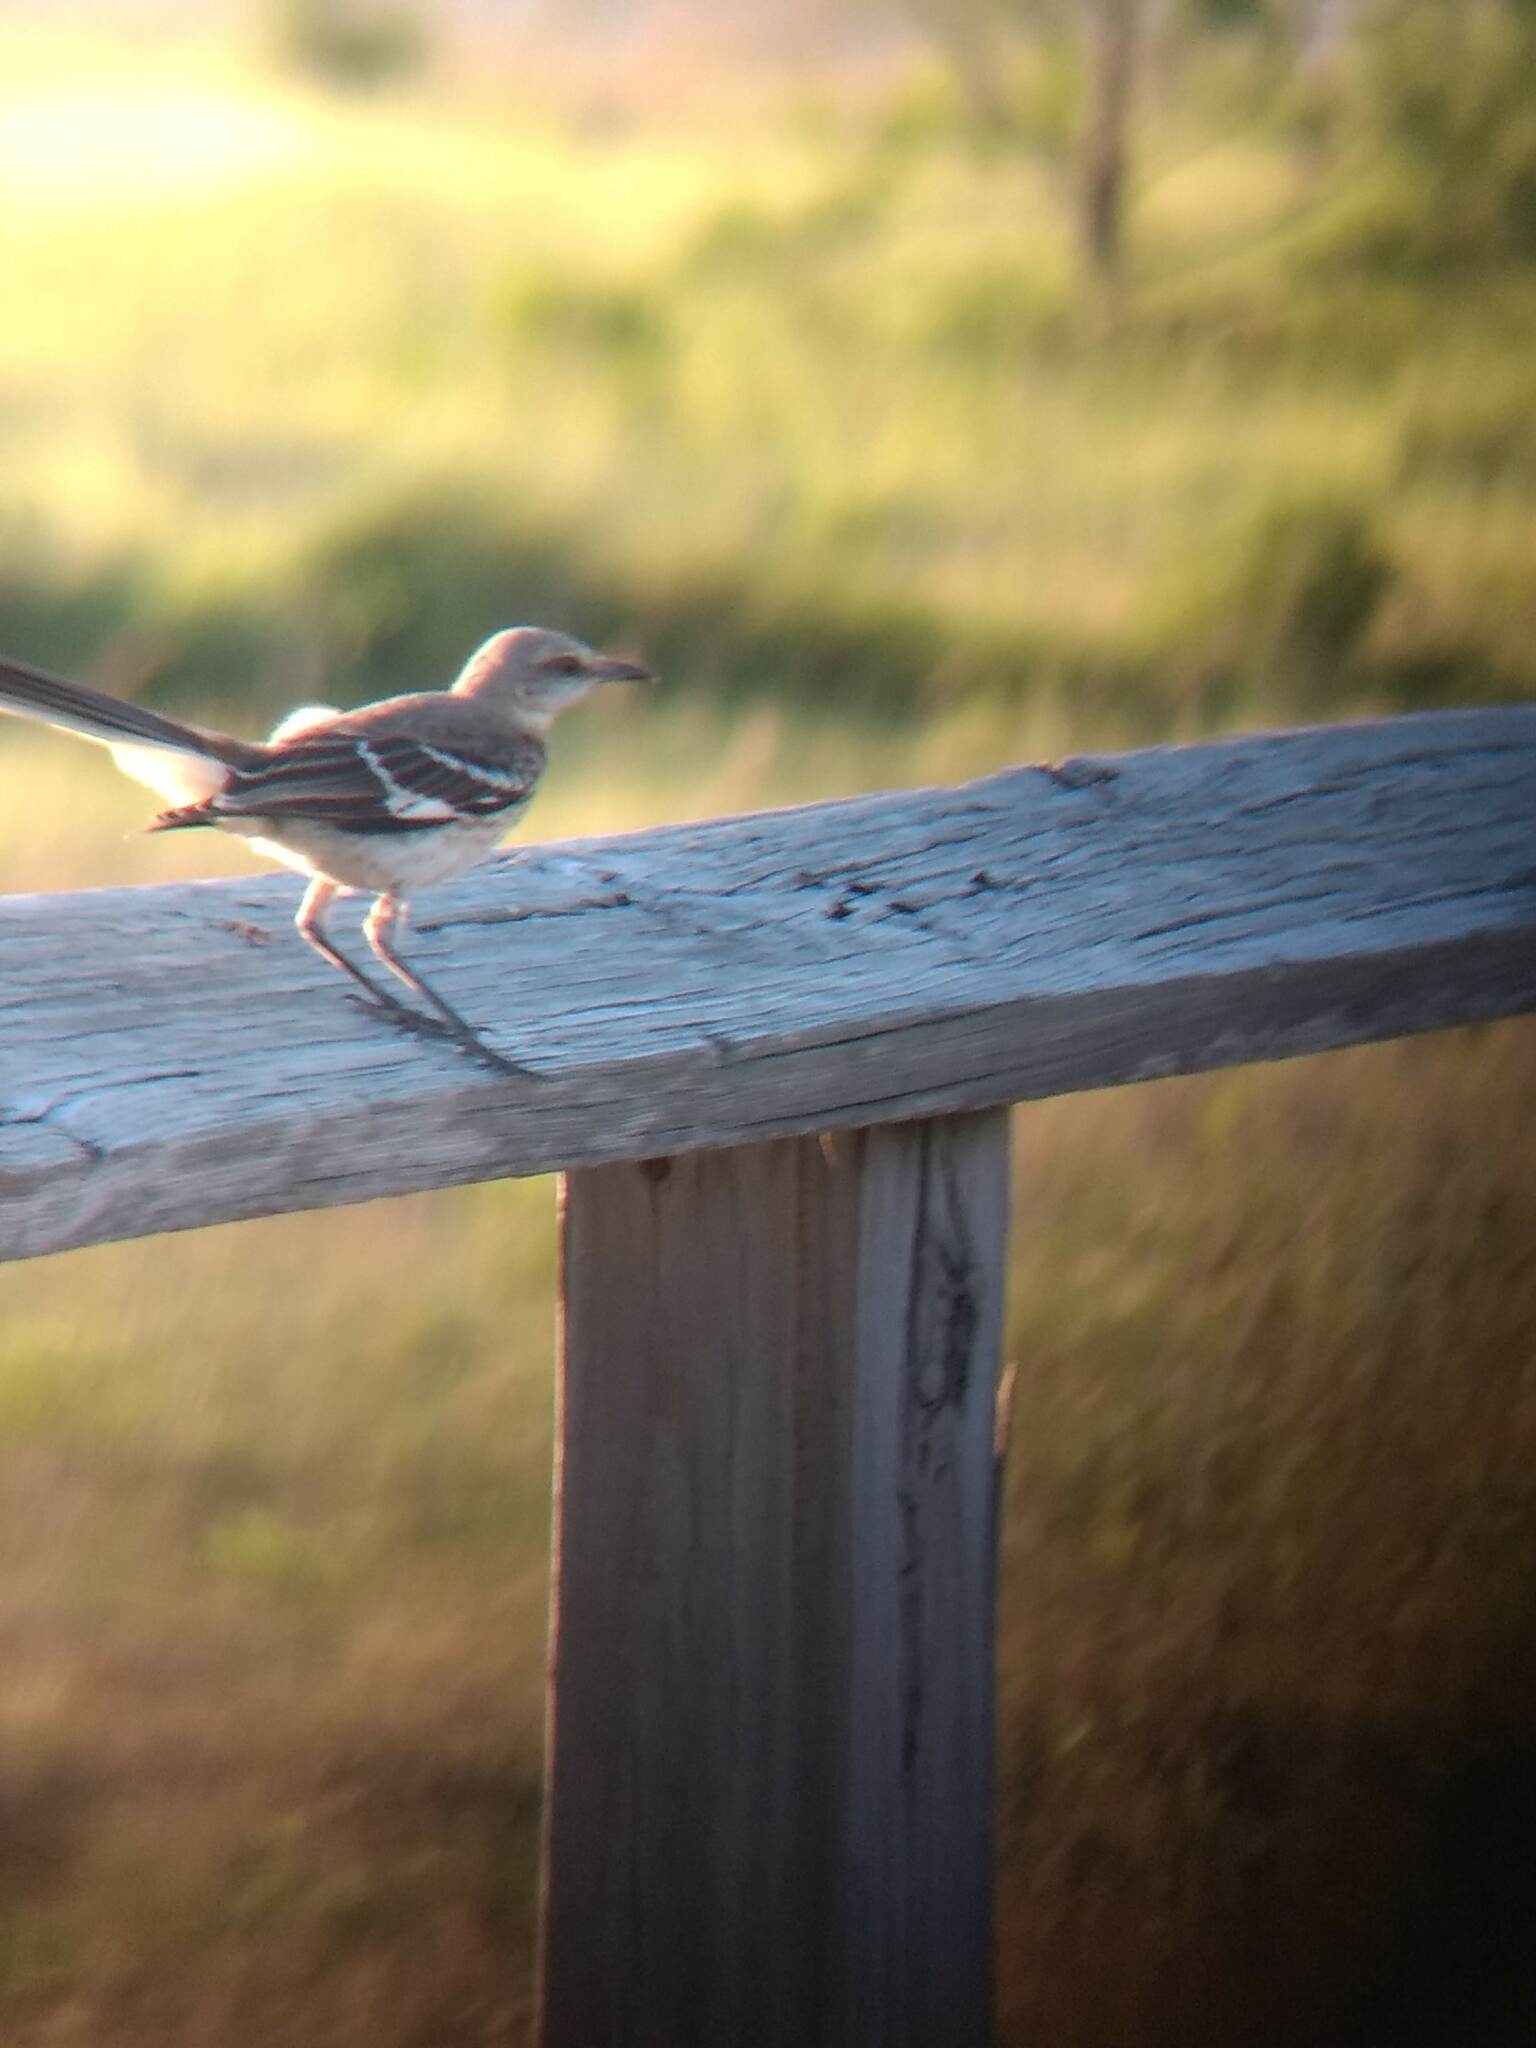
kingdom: Animalia
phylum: Chordata
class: Aves
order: Passeriformes
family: Mimidae
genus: Mimus
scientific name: Mimus polyglottos
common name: Northern mockingbird
